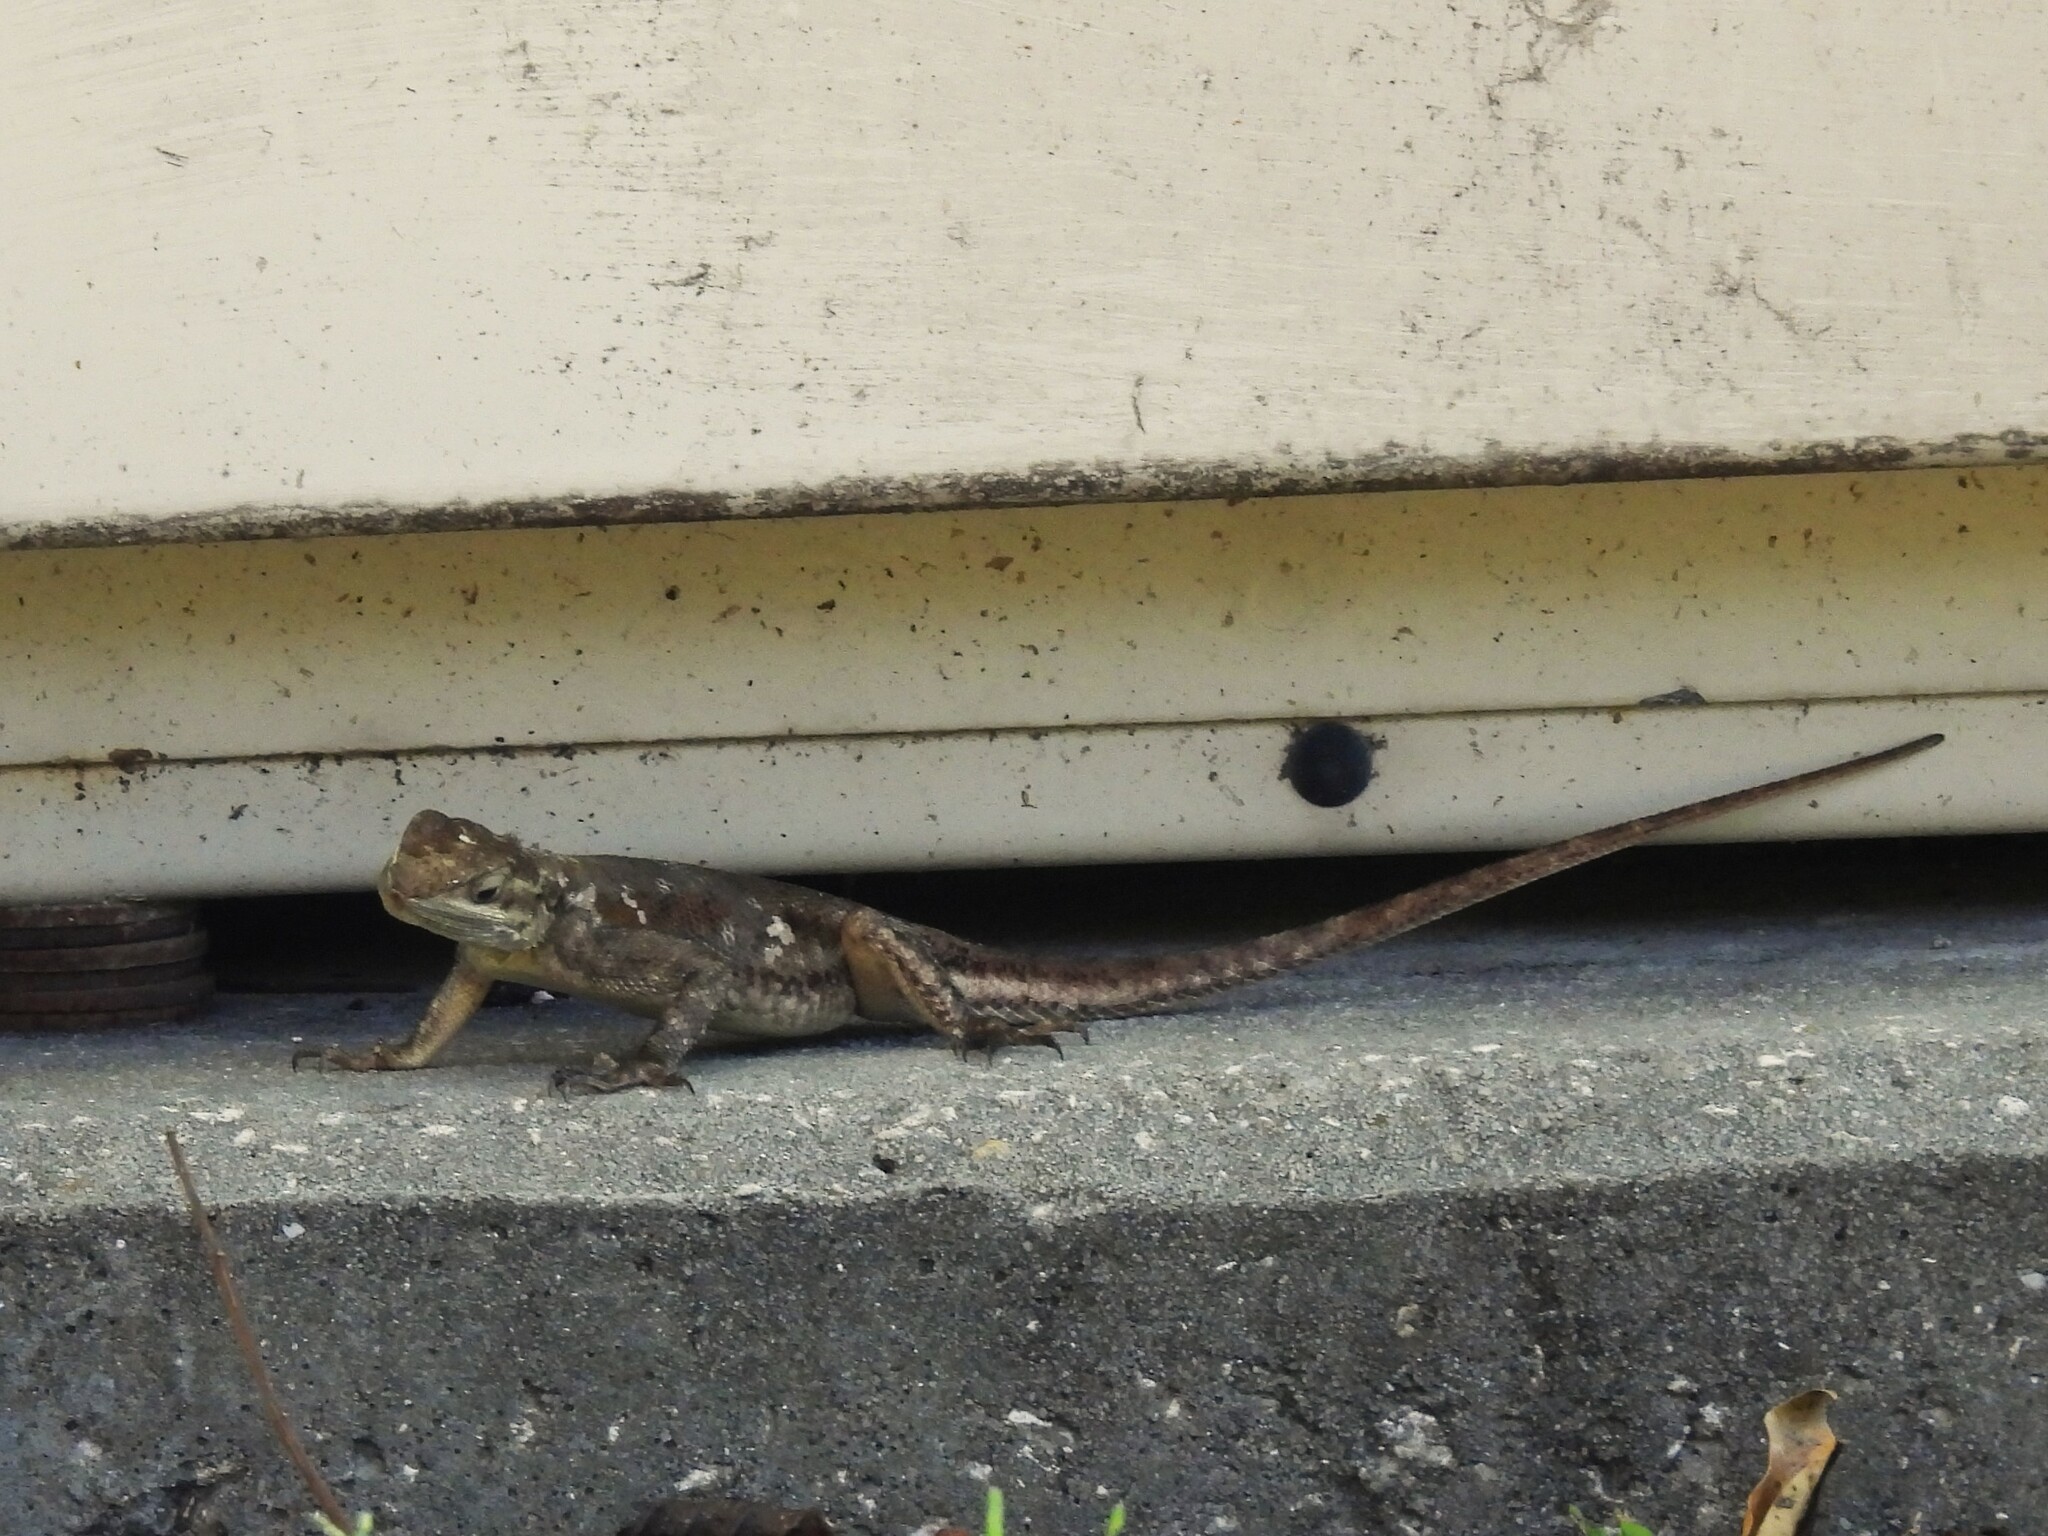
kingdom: Animalia
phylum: Chordata
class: Squamata
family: Agamidae
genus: Agama
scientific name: Agama picticauda
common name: Red-headed agama
